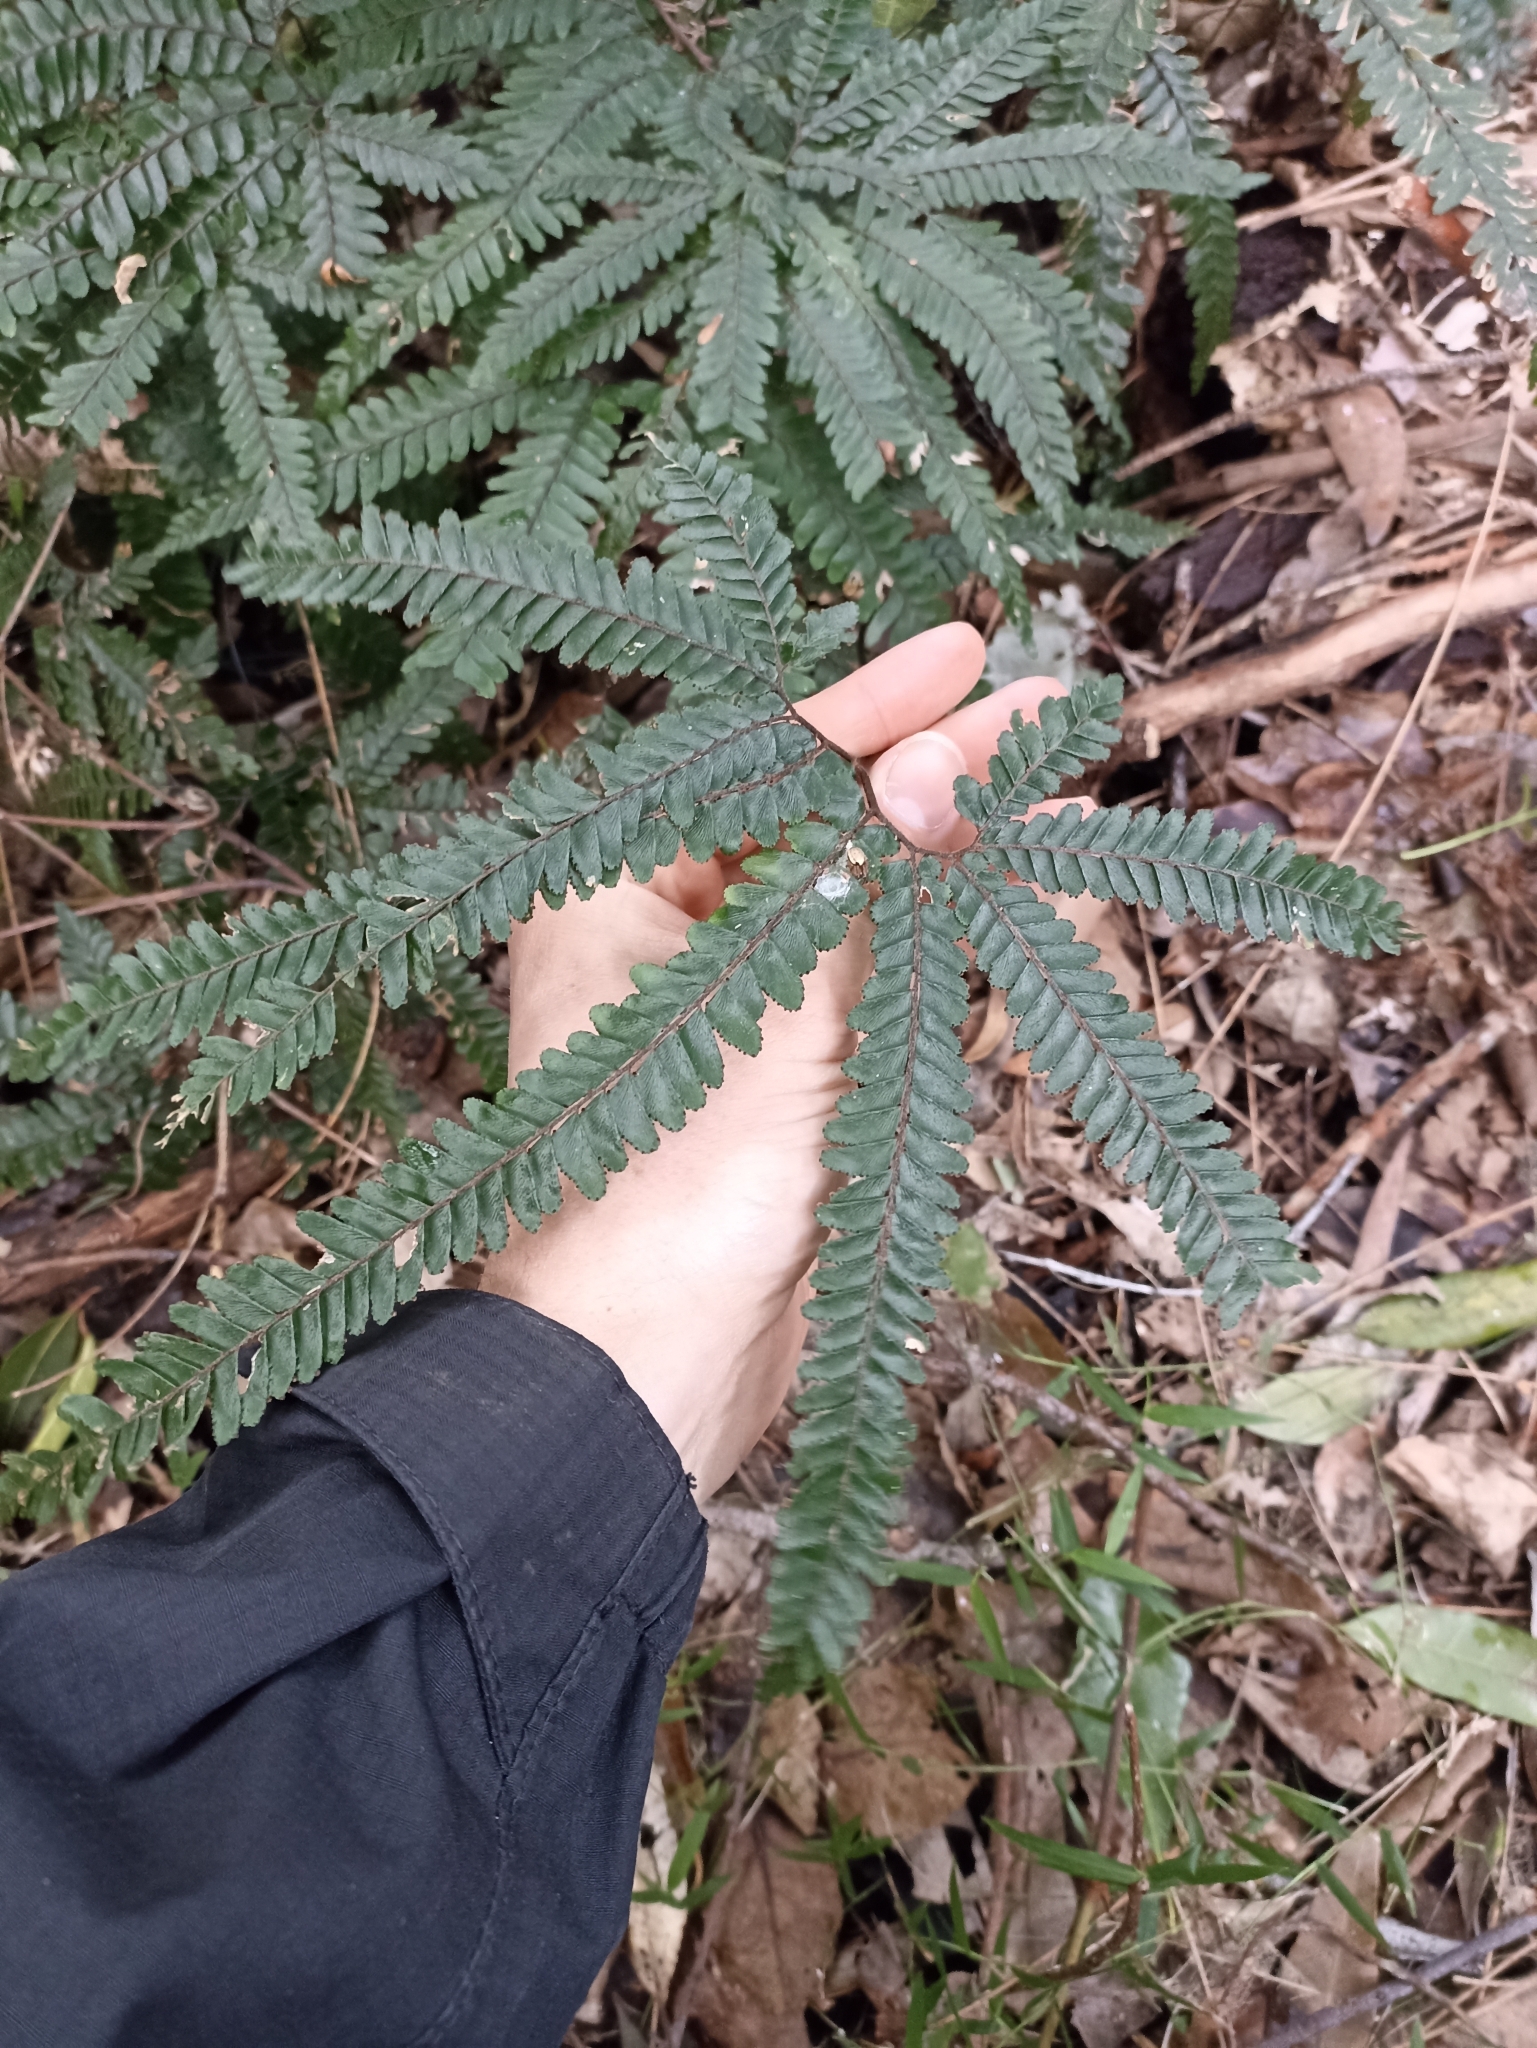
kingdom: Plantae
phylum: Tracheophyta
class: Polypodiopsida
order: Polypodiales
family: Pteridaceae
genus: Adiantum
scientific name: Adiantum hispidulum
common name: Rough maidenhair
